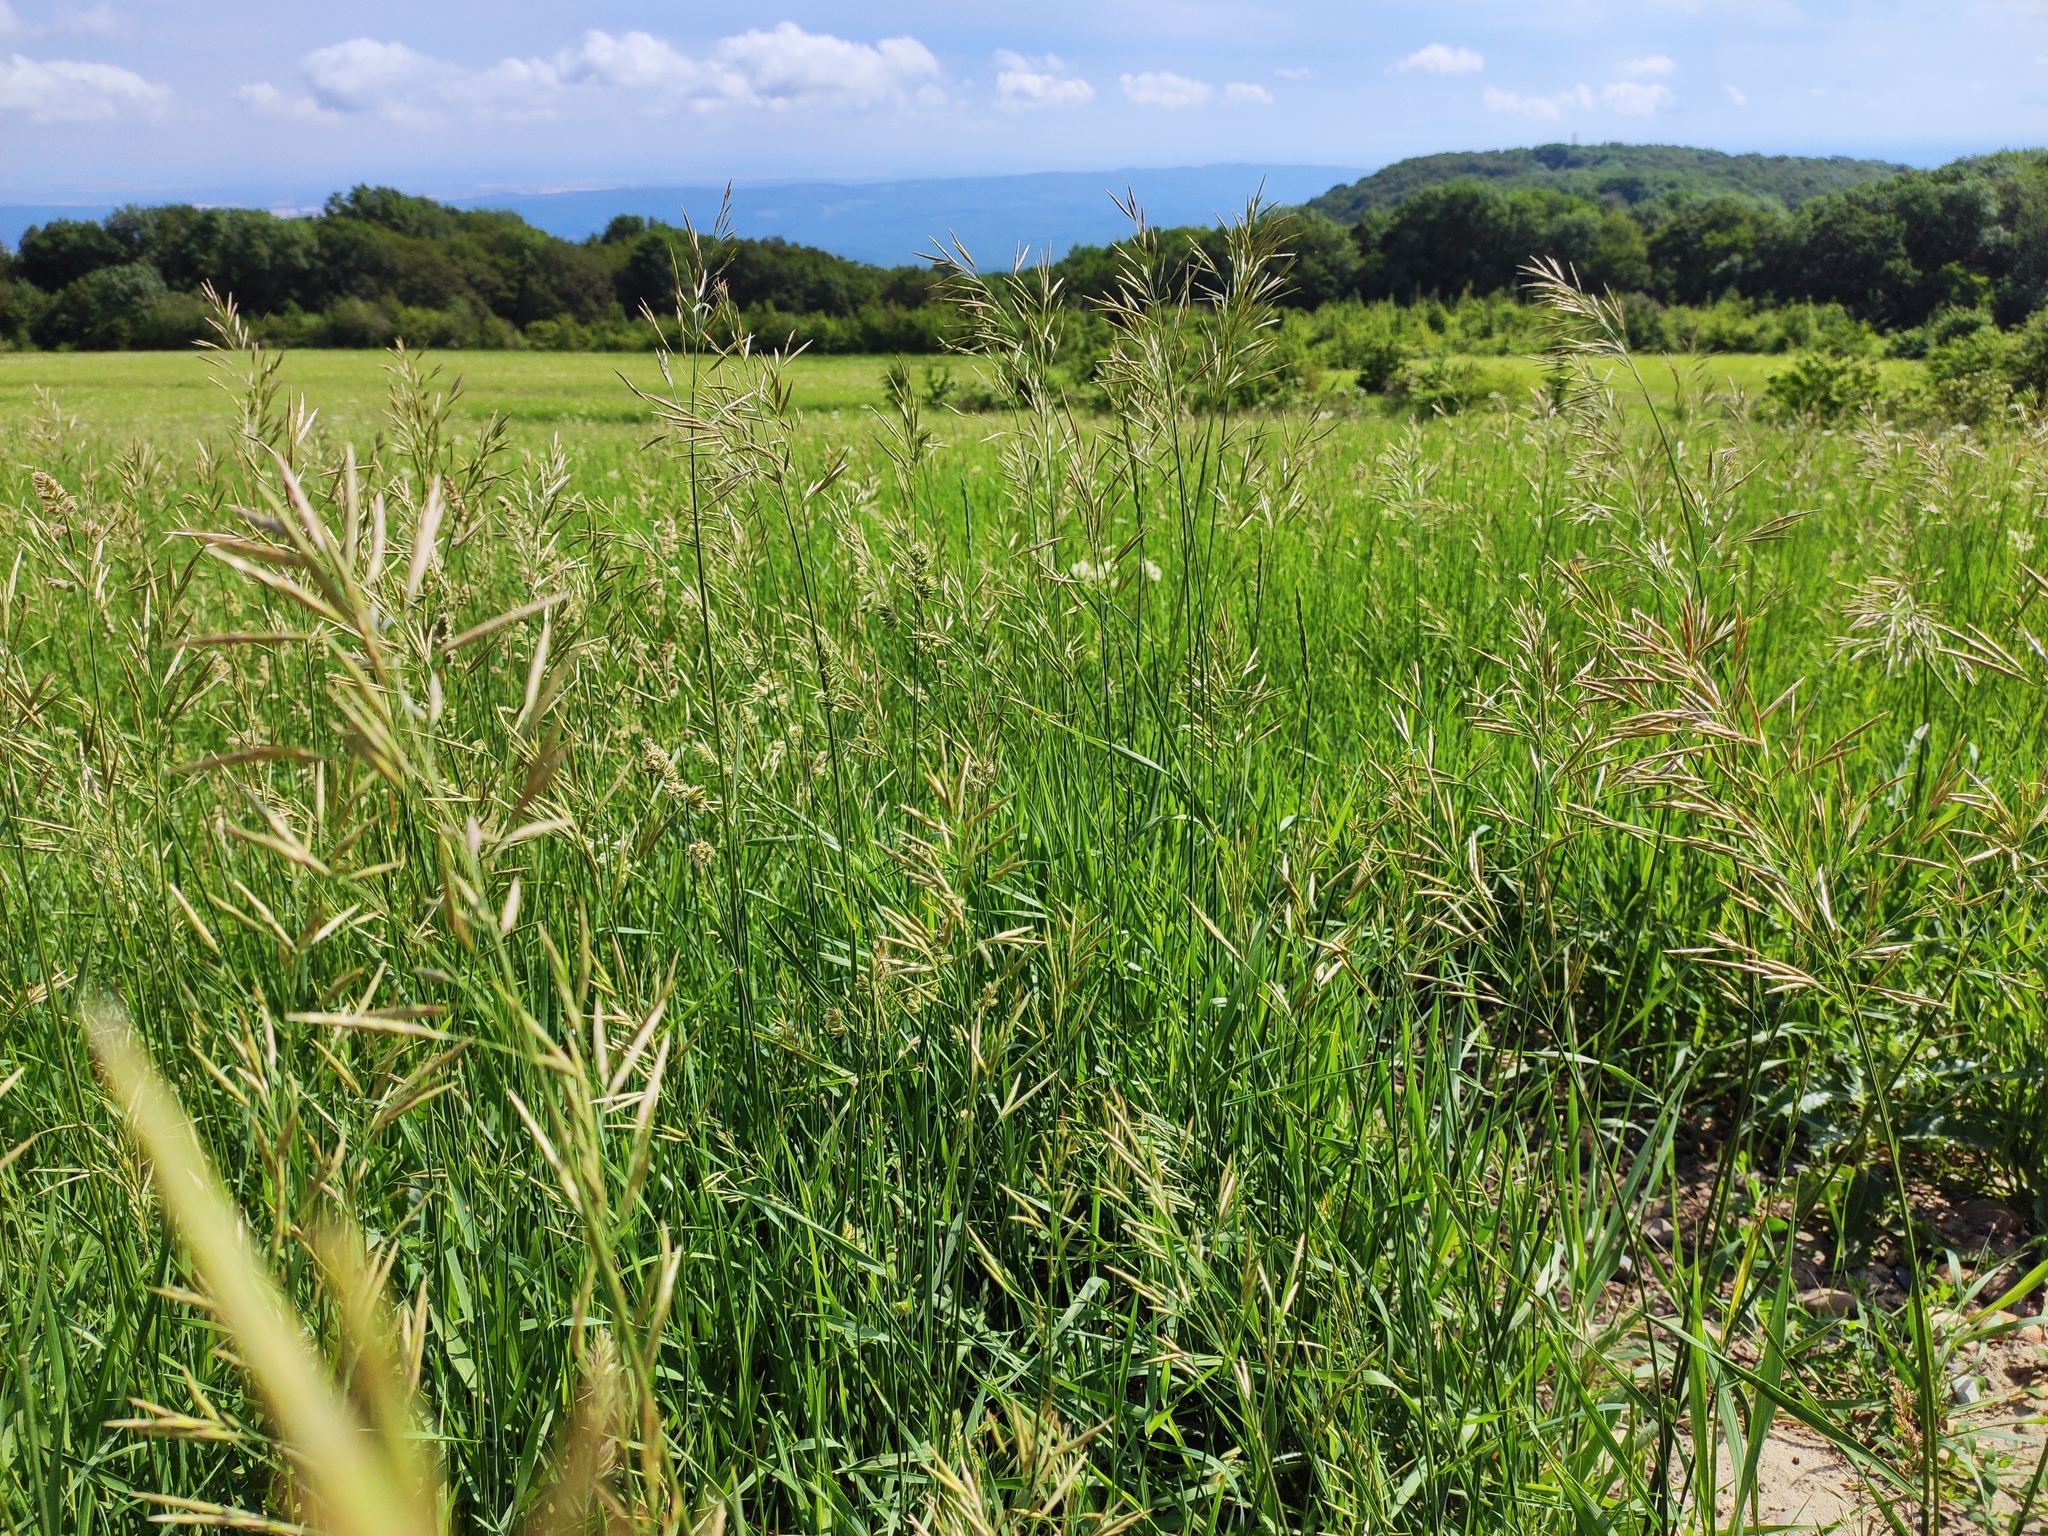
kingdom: Plantae
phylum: Tracheophyta
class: Liliopsida
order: Poales
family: Poaceae
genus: Bromus
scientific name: Bromus inermis
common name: Smooth brome
